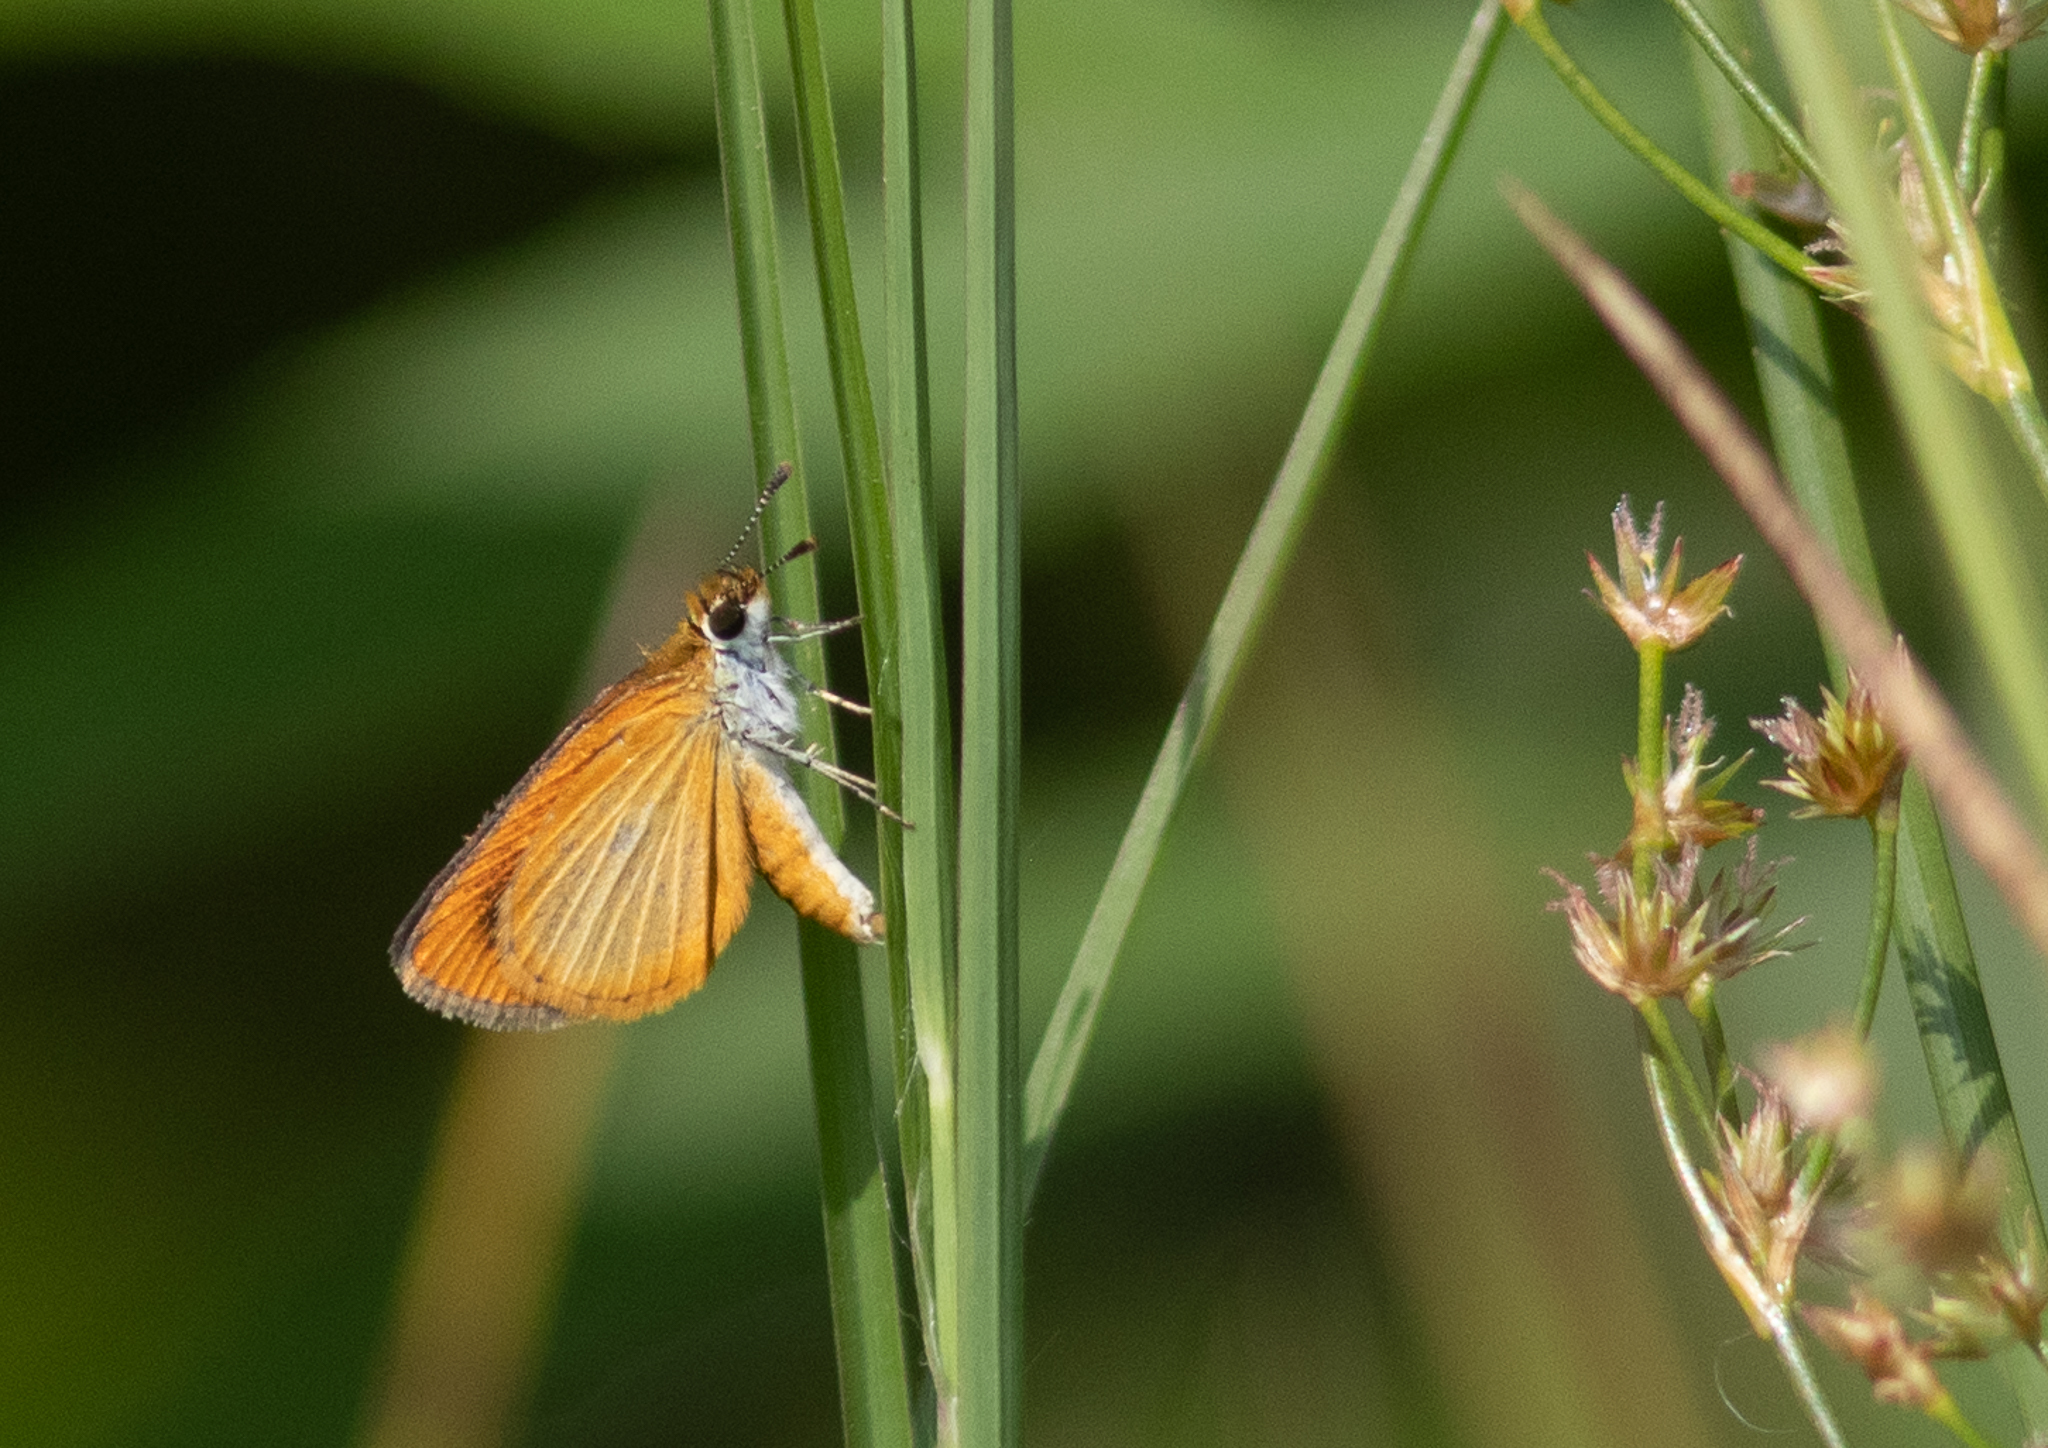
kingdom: Animalia
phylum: Arthropoda
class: Insecta
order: Lepidoptera
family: Hesperiidae
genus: Ancyloxypha
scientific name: Ancyloxypha numitor
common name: Least skipper
